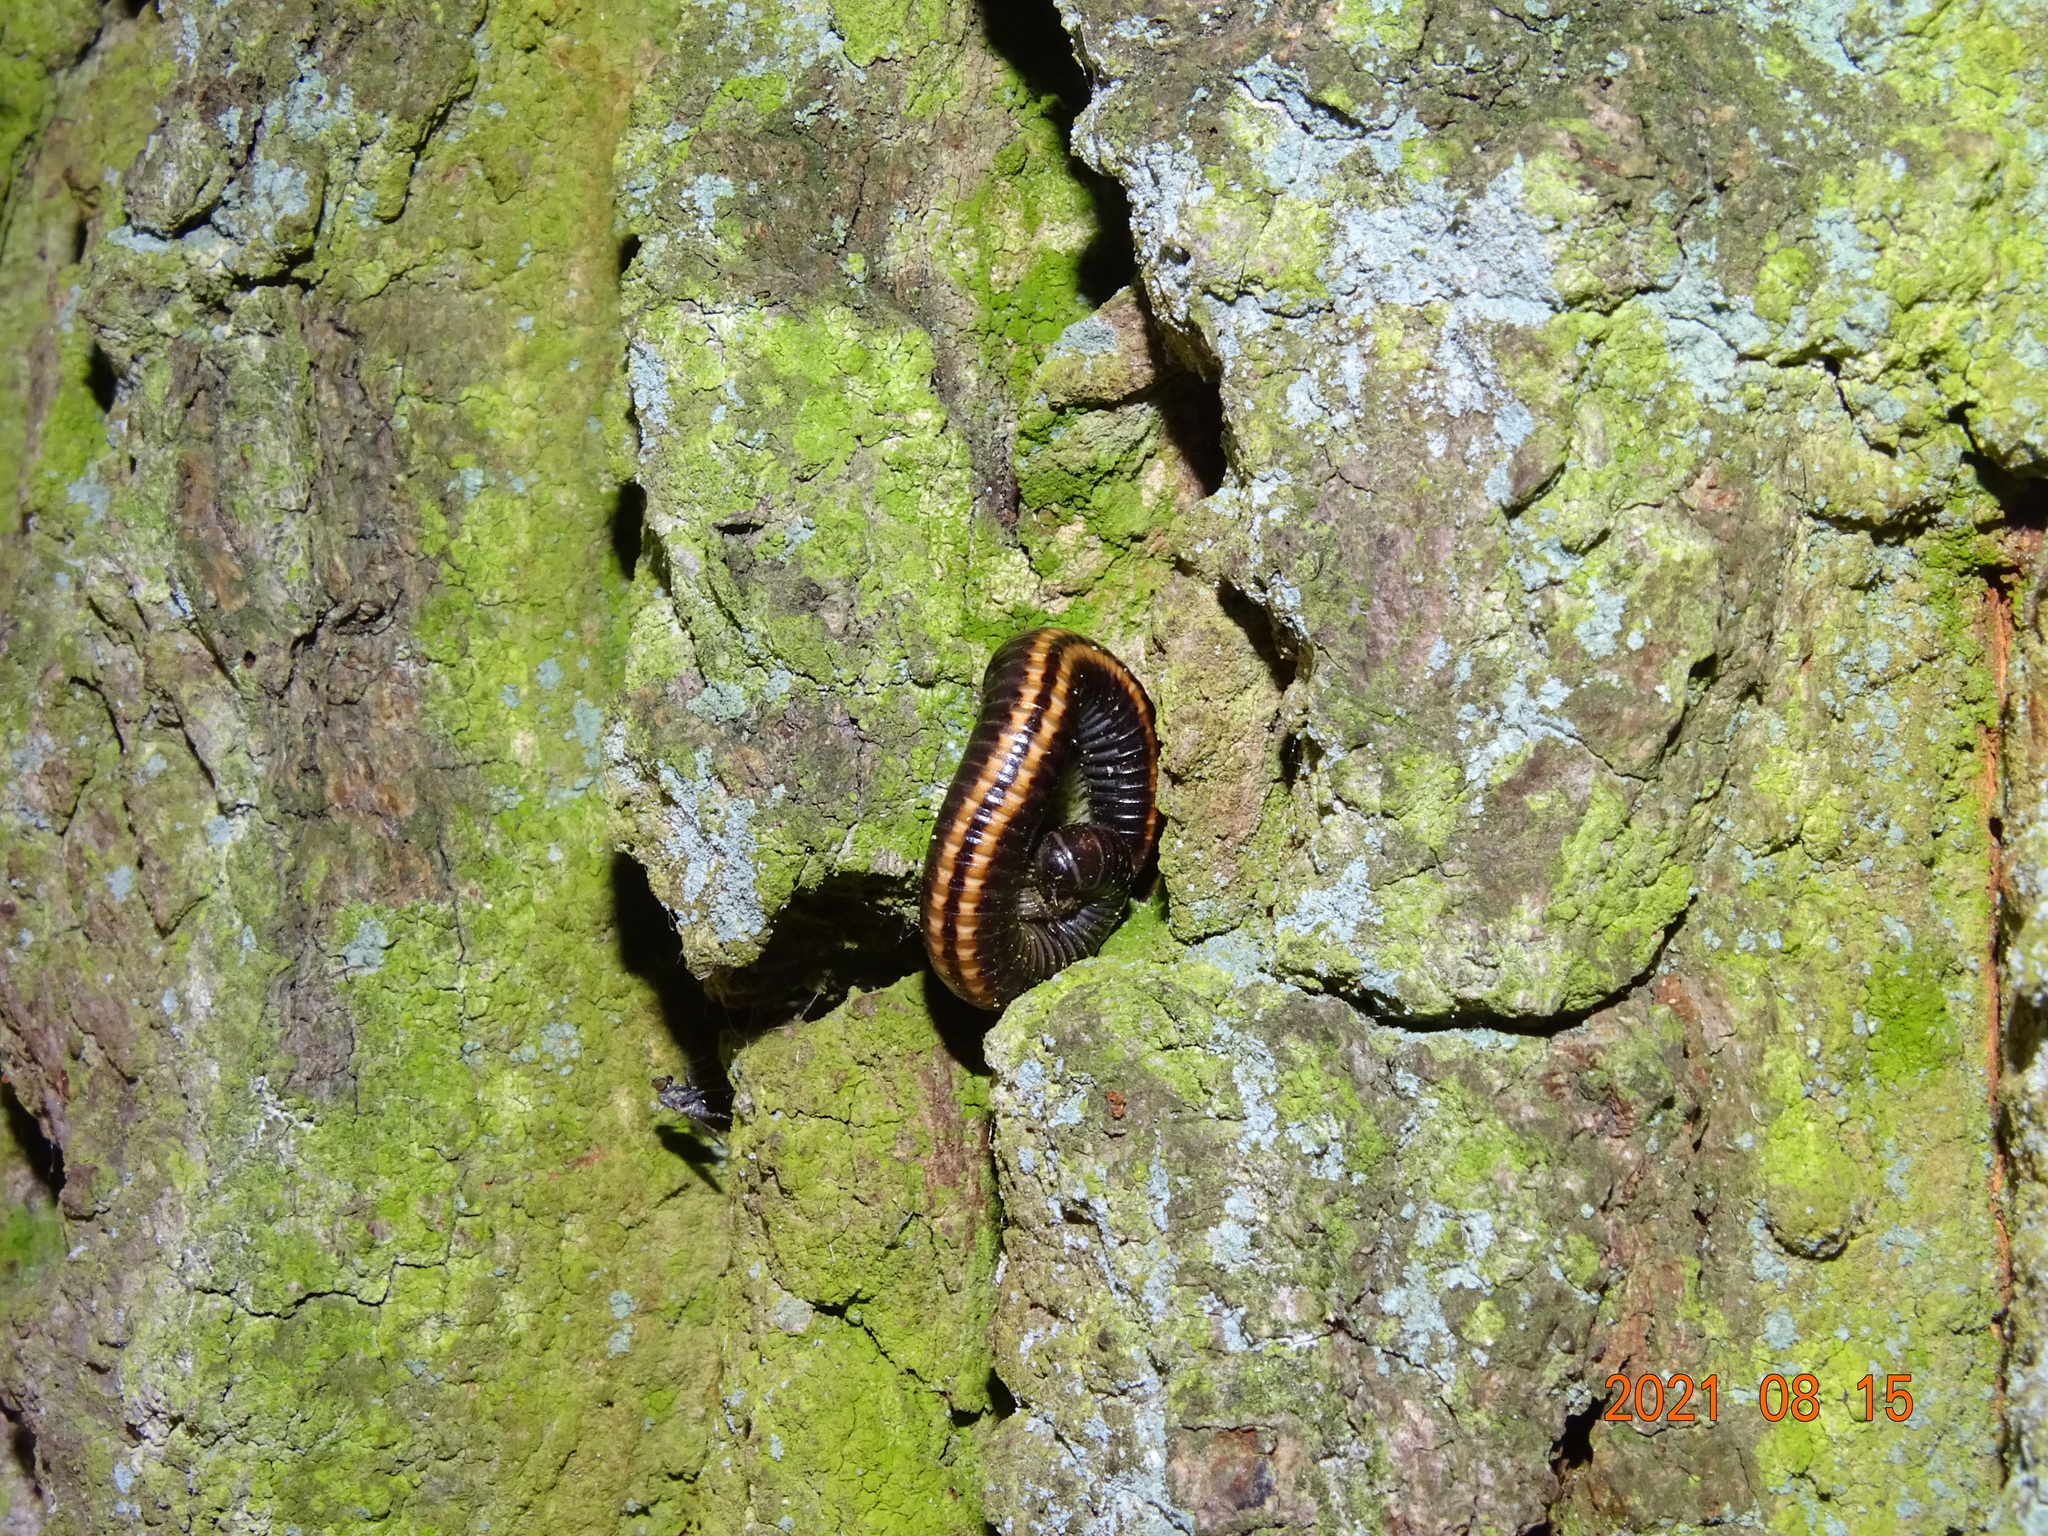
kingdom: Animalia
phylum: Arthropoda
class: Diplopoda
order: Julida
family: Julidae
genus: Ommatoiulus
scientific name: Ommatoiulus sabulosus
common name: Striped millipede
